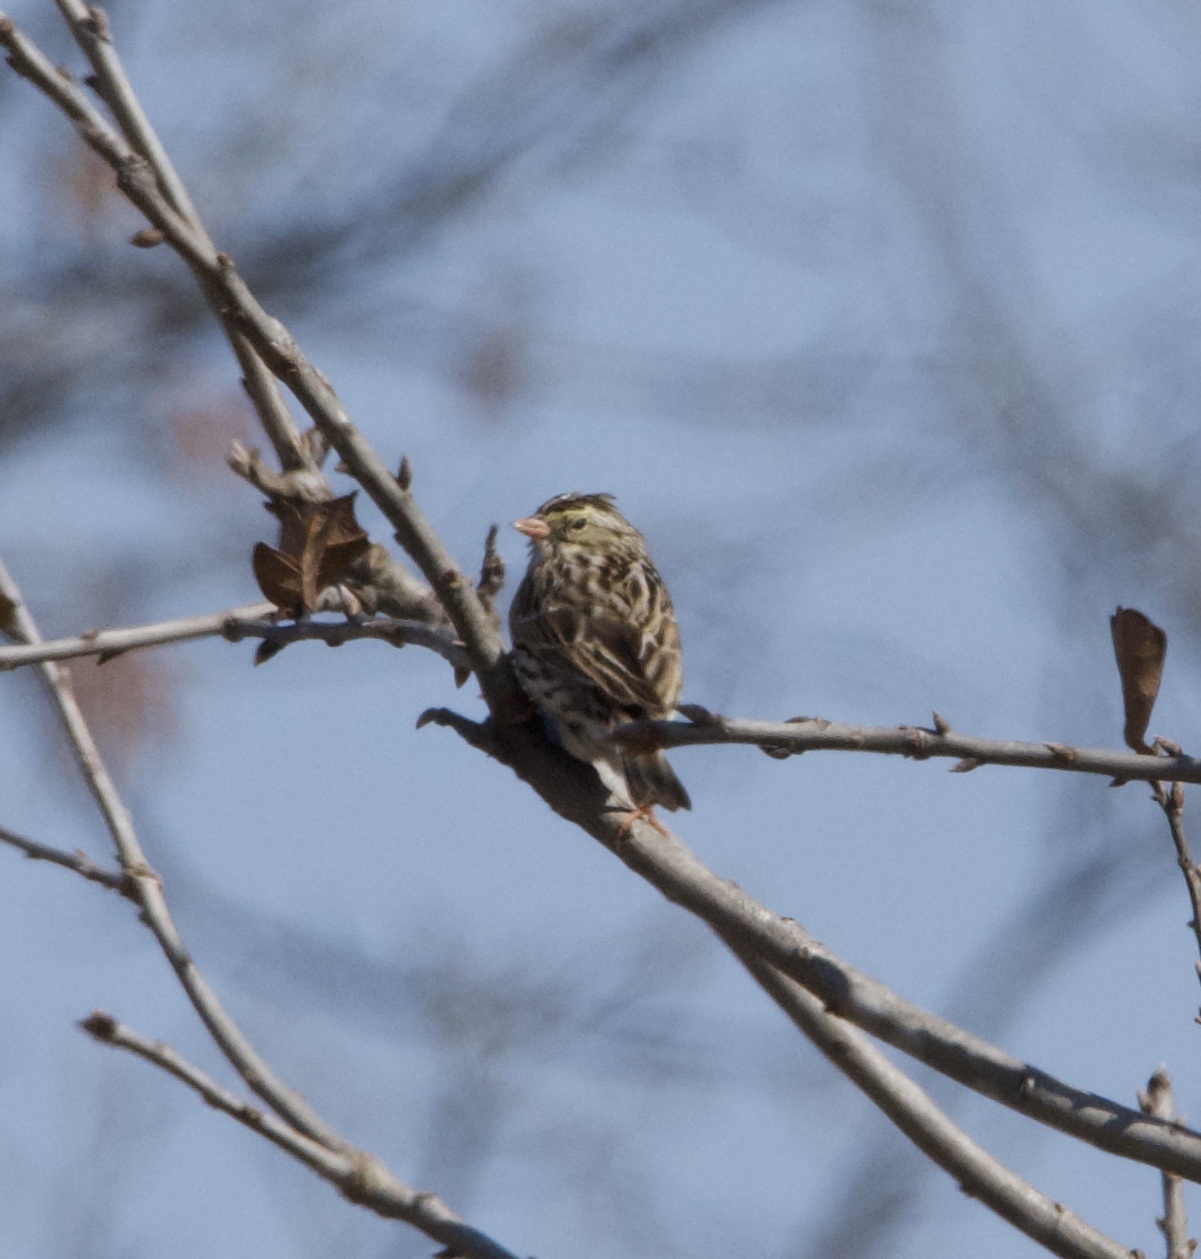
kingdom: Animalia
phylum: Chordata
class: Aves
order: Passeriformes
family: Passerellidae
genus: Passerculus
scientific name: Passerculus sandwichensis
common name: Savannah sparrow
